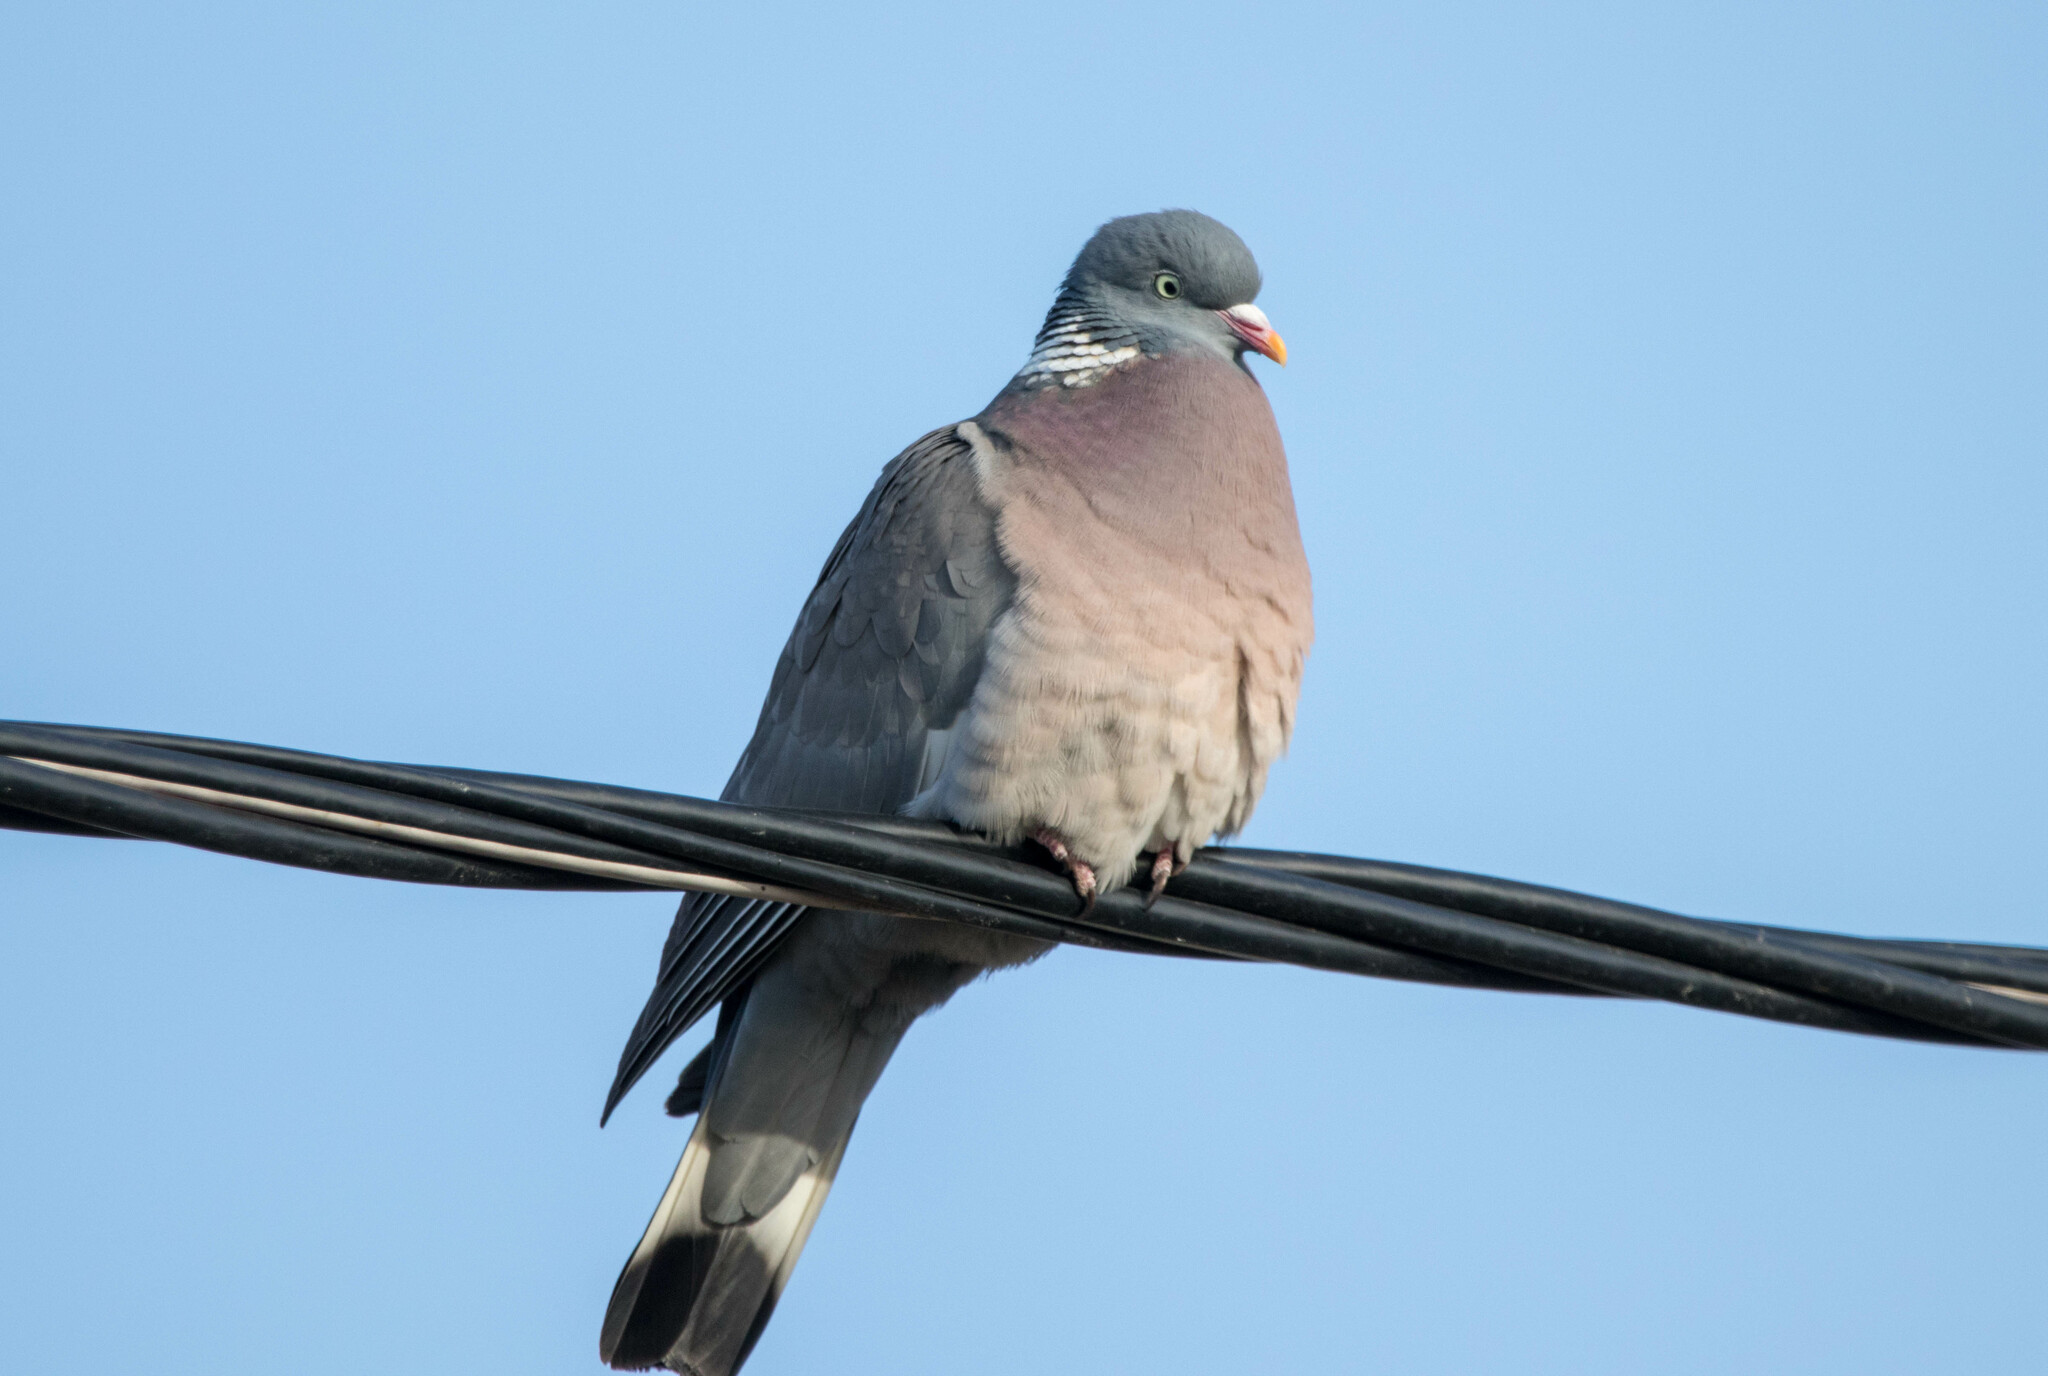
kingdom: Animalia
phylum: Chordata
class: Aves
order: Columbiformes
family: Columbidae
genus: Columba
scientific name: Columba palumbus
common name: Common wood pigeon
